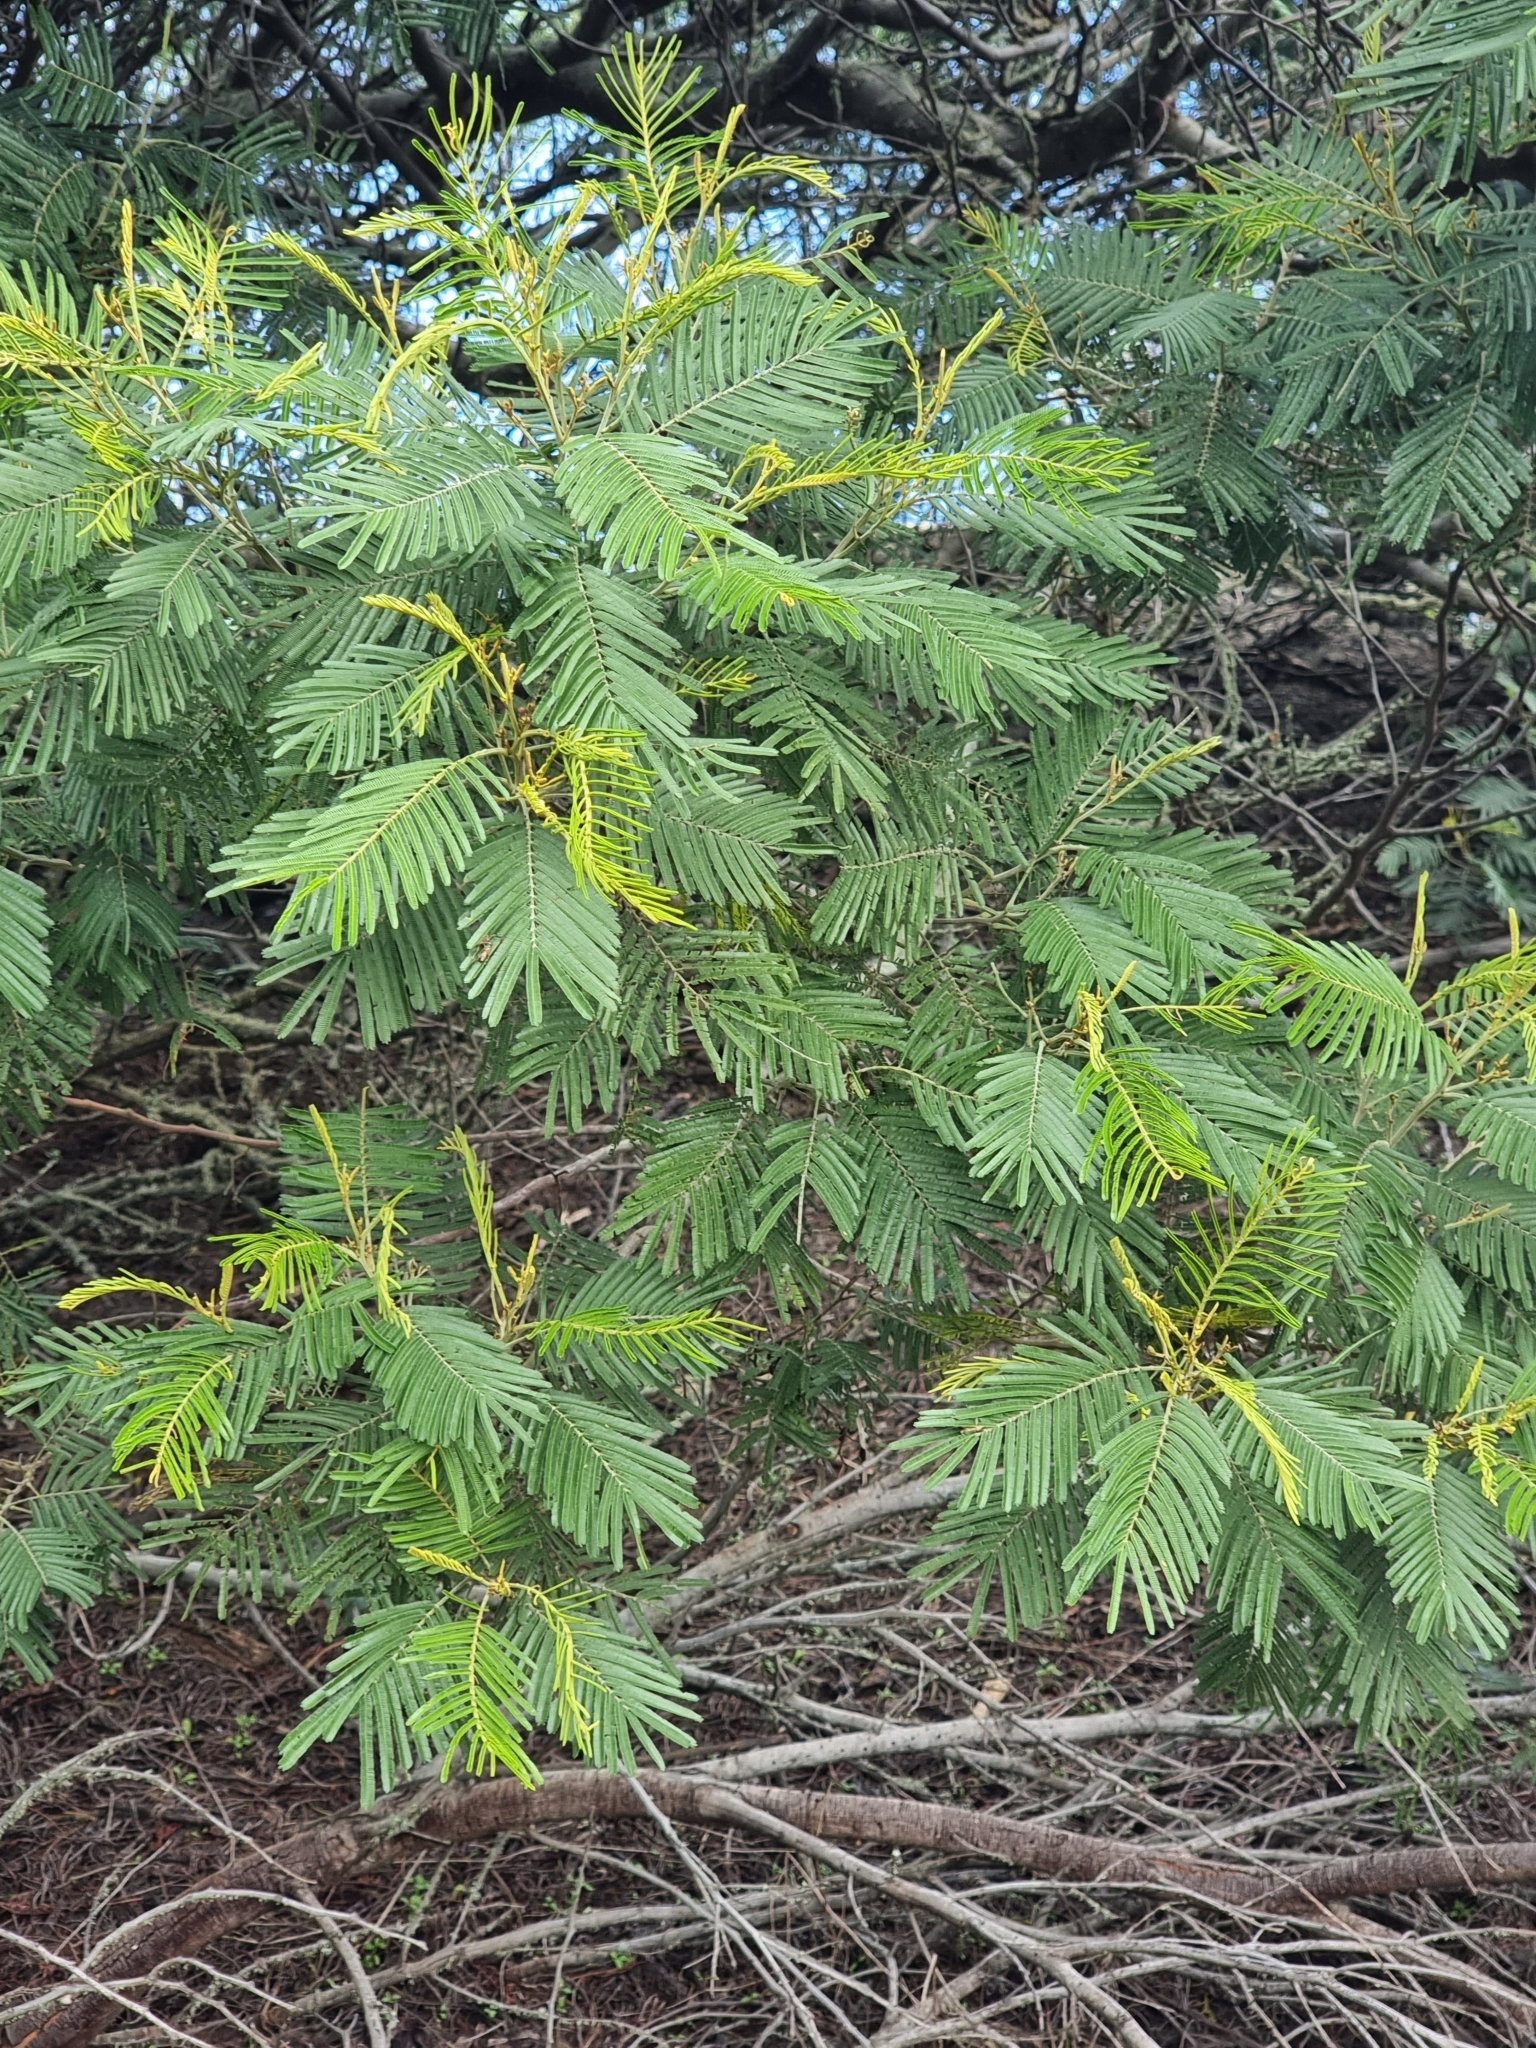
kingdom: Plantae
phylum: Tracheophyta
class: Magnoliopsida
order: Fabales
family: Fabaceae
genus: Acacia
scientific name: Acacia mearnsii
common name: Black wattle
